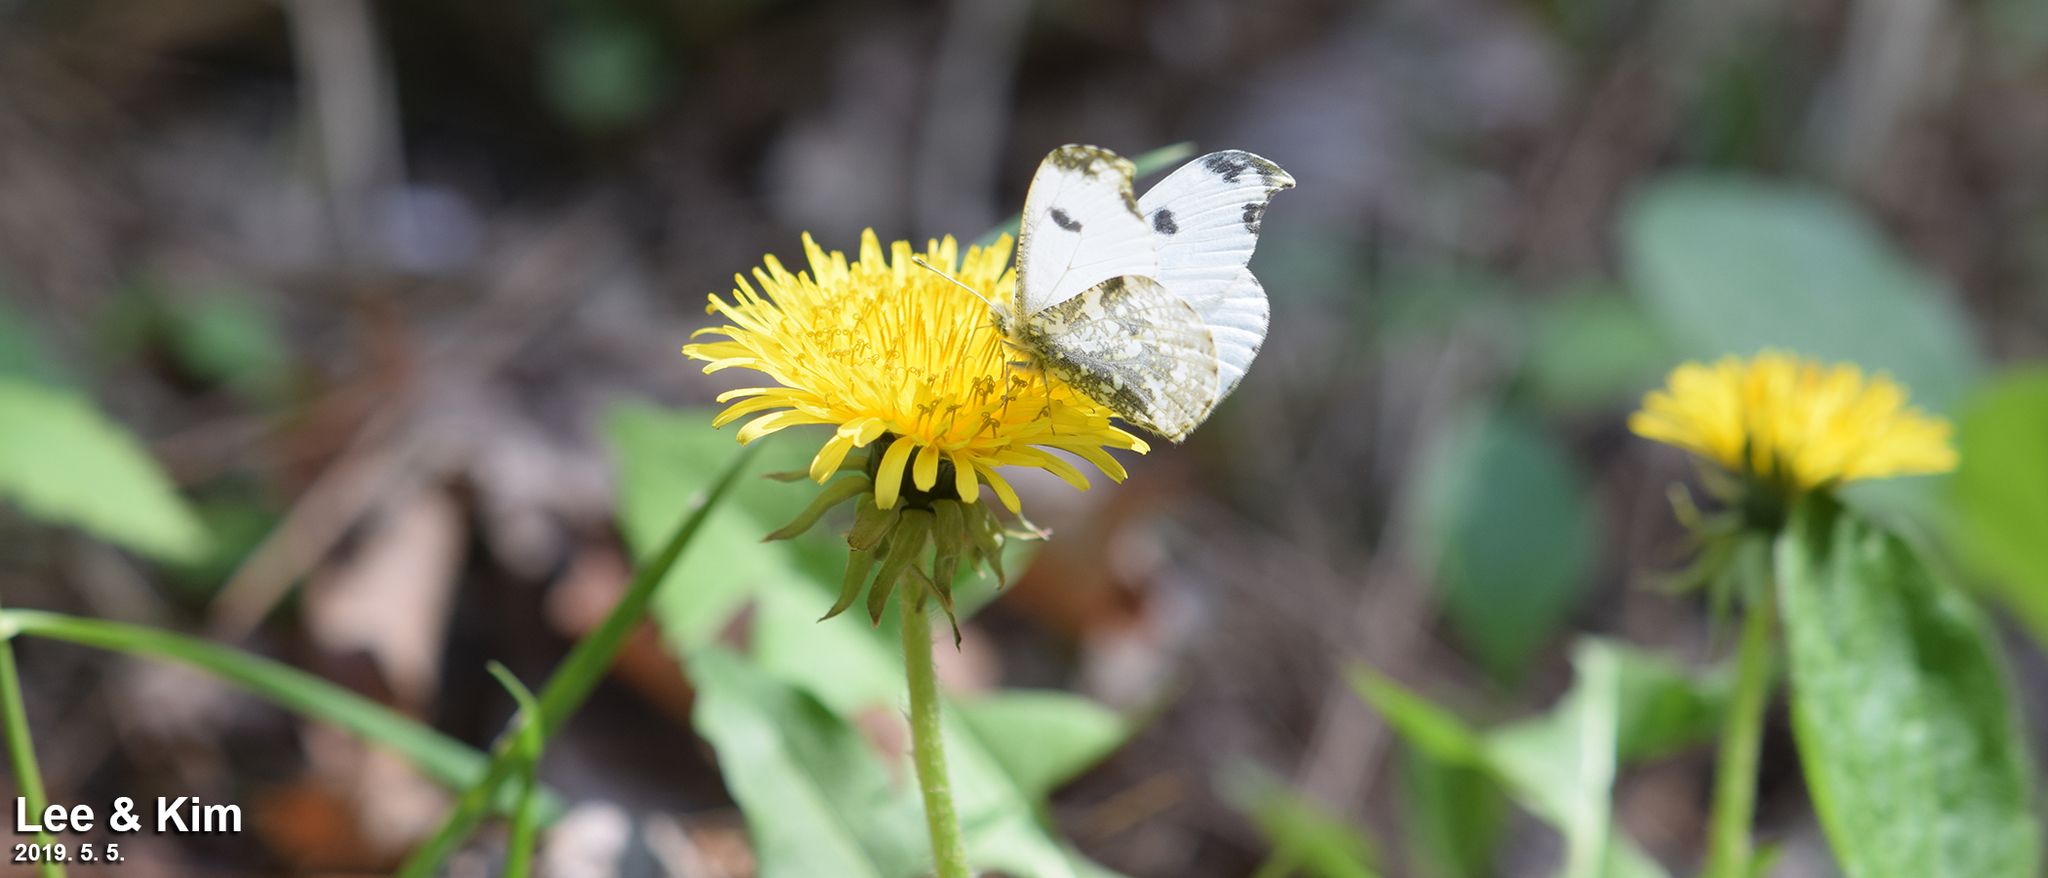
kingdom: Animalia
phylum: Arthropoda
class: Insecta
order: Lepidoptera
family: Pieridae
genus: Anthocharis
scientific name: Anthocharis scolymus
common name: Yellow tip
